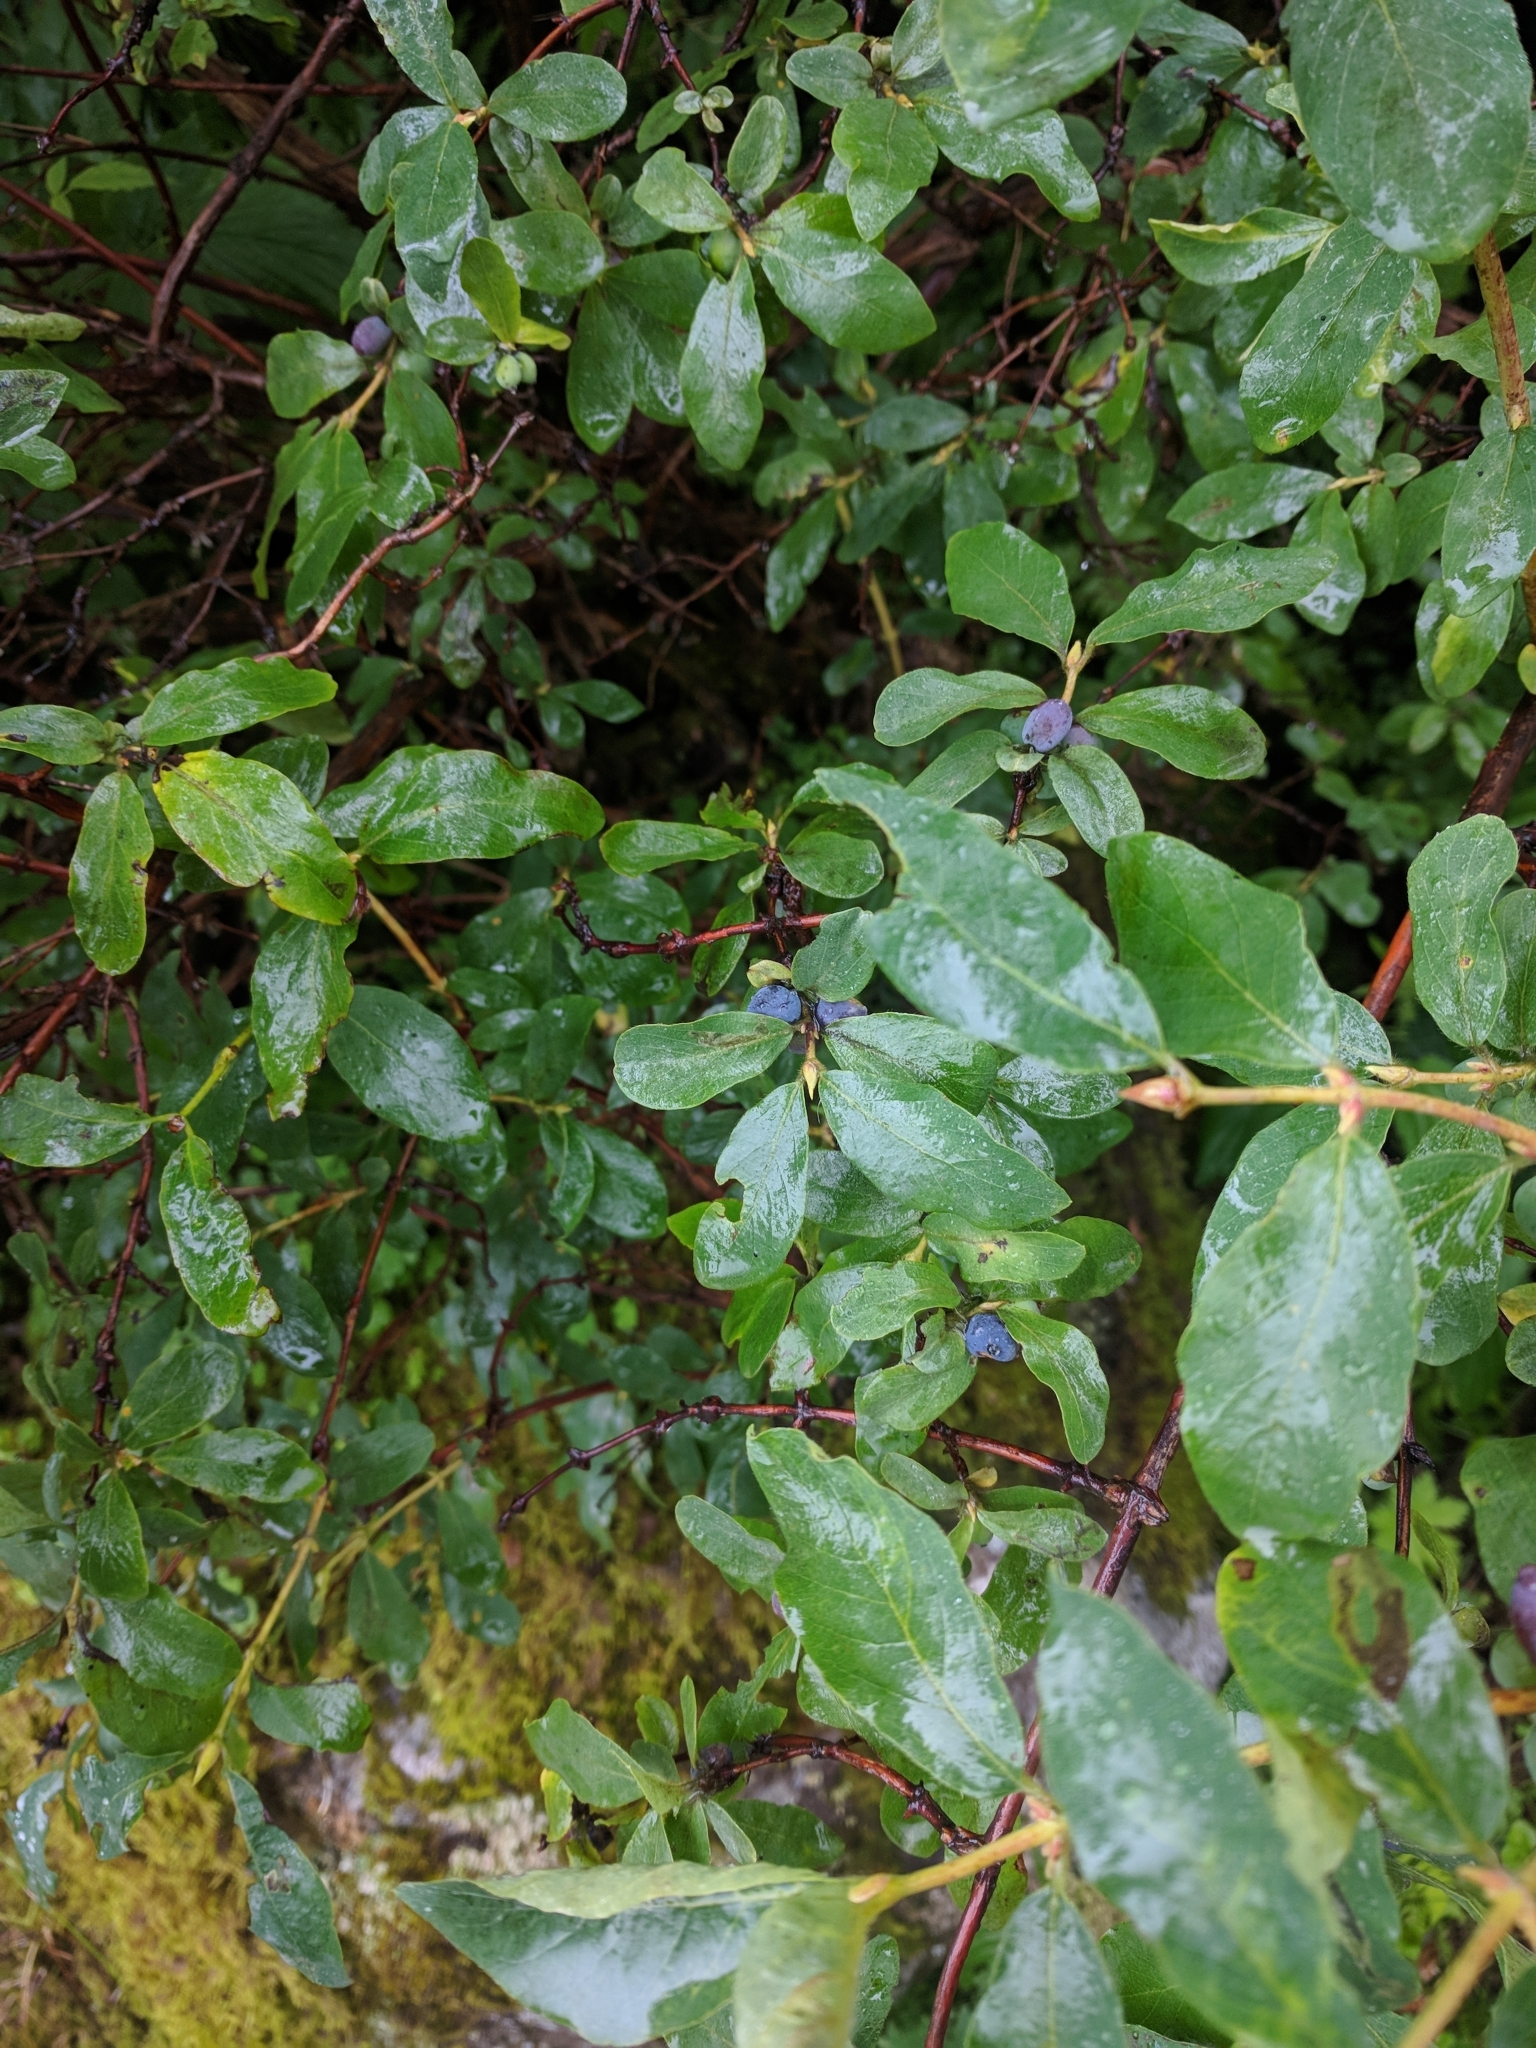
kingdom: Plantae
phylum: Tracheophyta
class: Magnoliopsida
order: Dipsacales
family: Caprifoliaceae
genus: Lonicera
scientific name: Lonicera caerulea
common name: Blue honeysuckle
